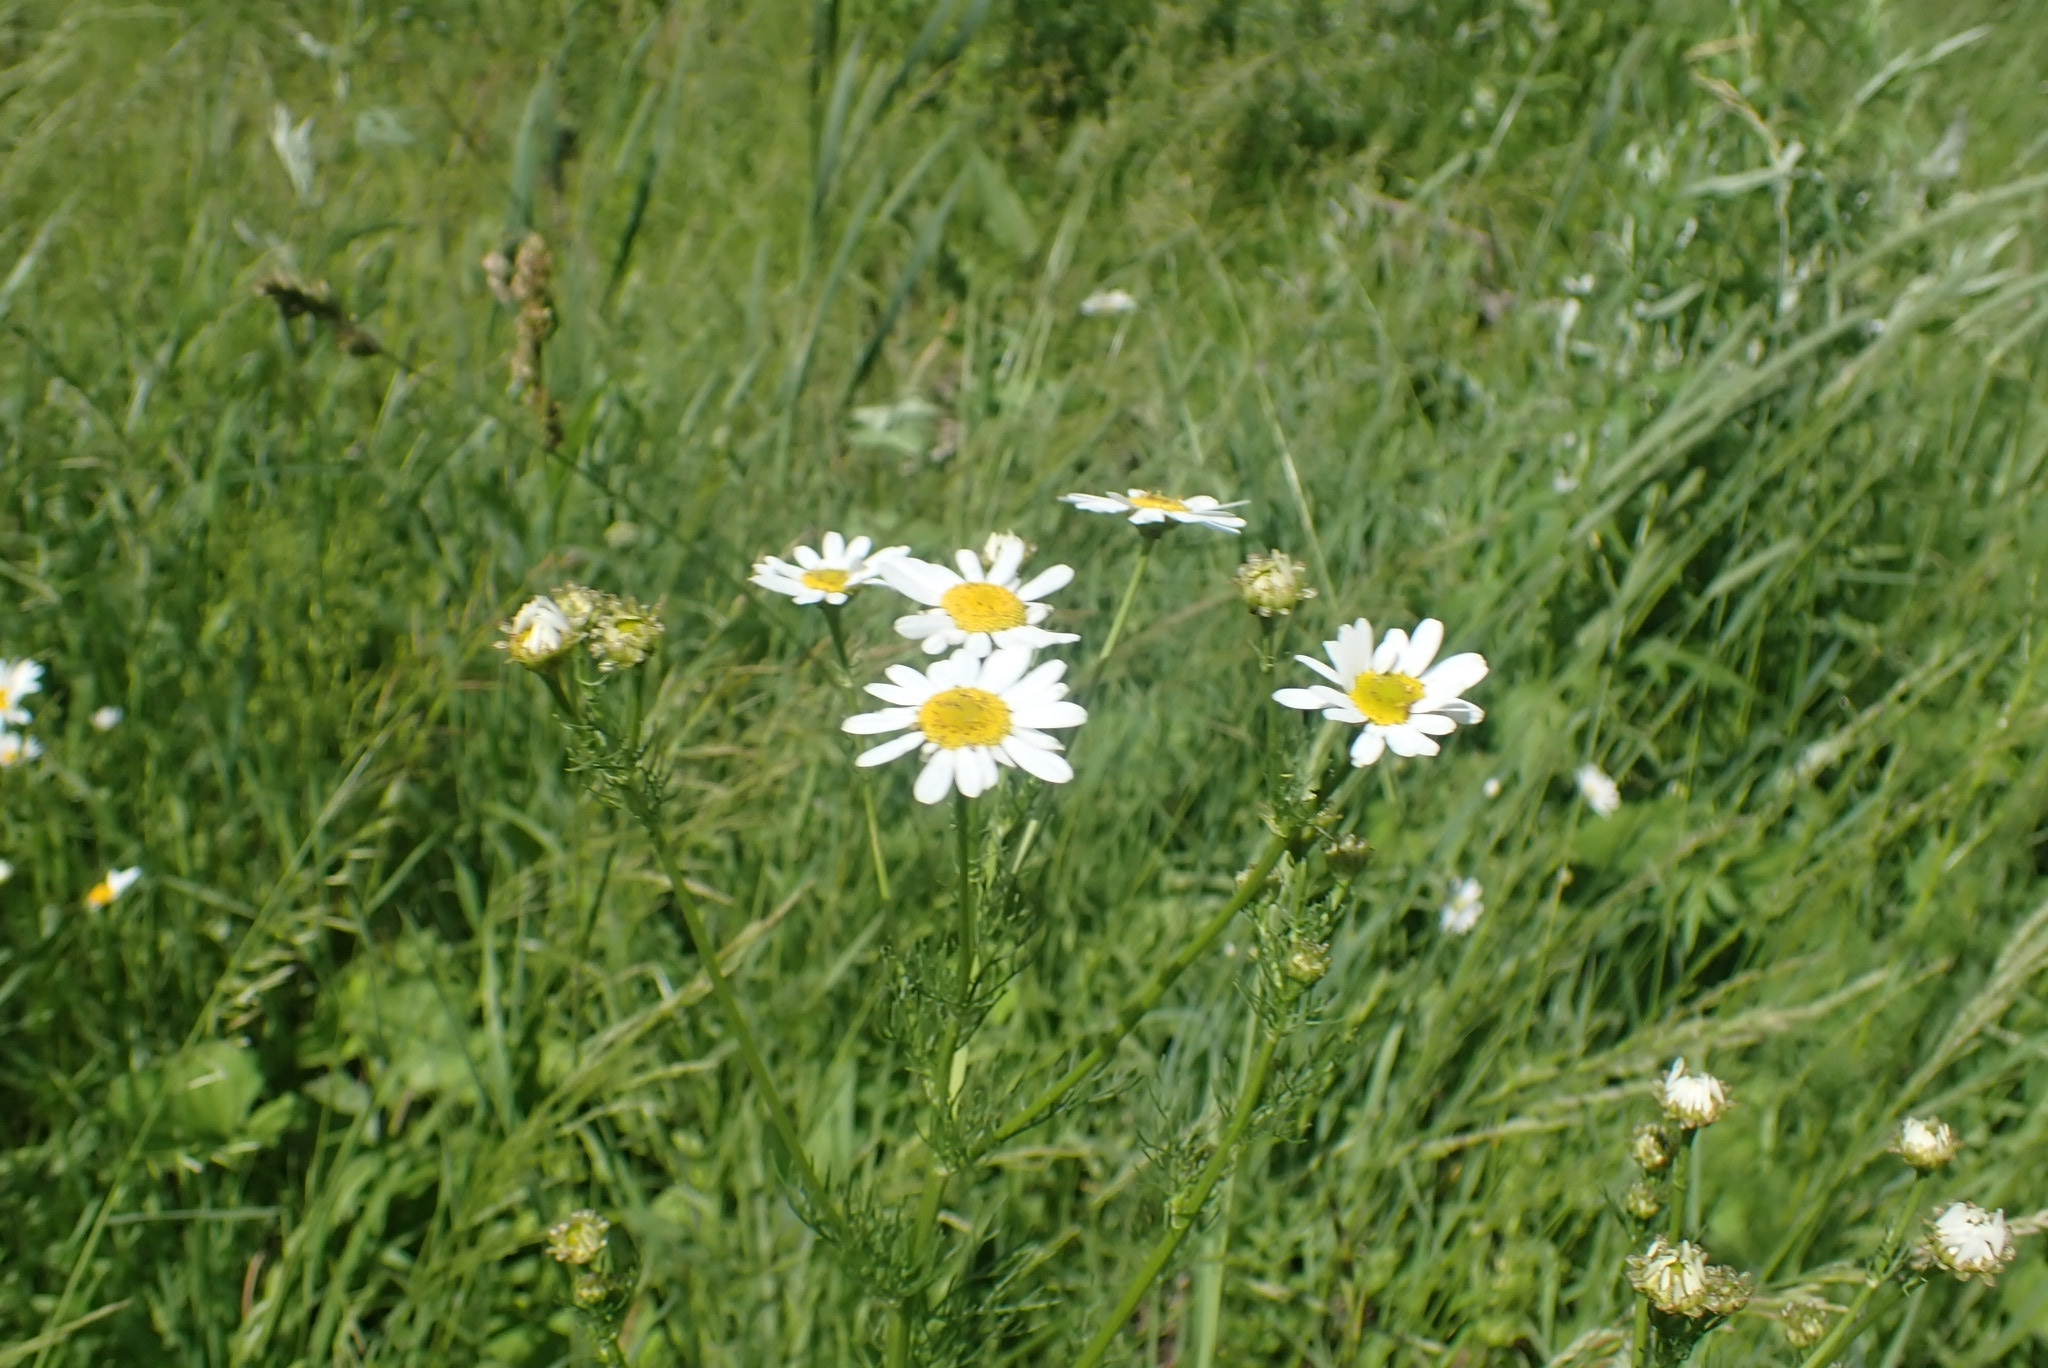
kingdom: Plantae
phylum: Tracheophyta
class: Magnoliopsida
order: Asterales
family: Asteraceae
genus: Tripleurospermum
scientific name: Tripleurospermum inodorum
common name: Scentless mayweed
